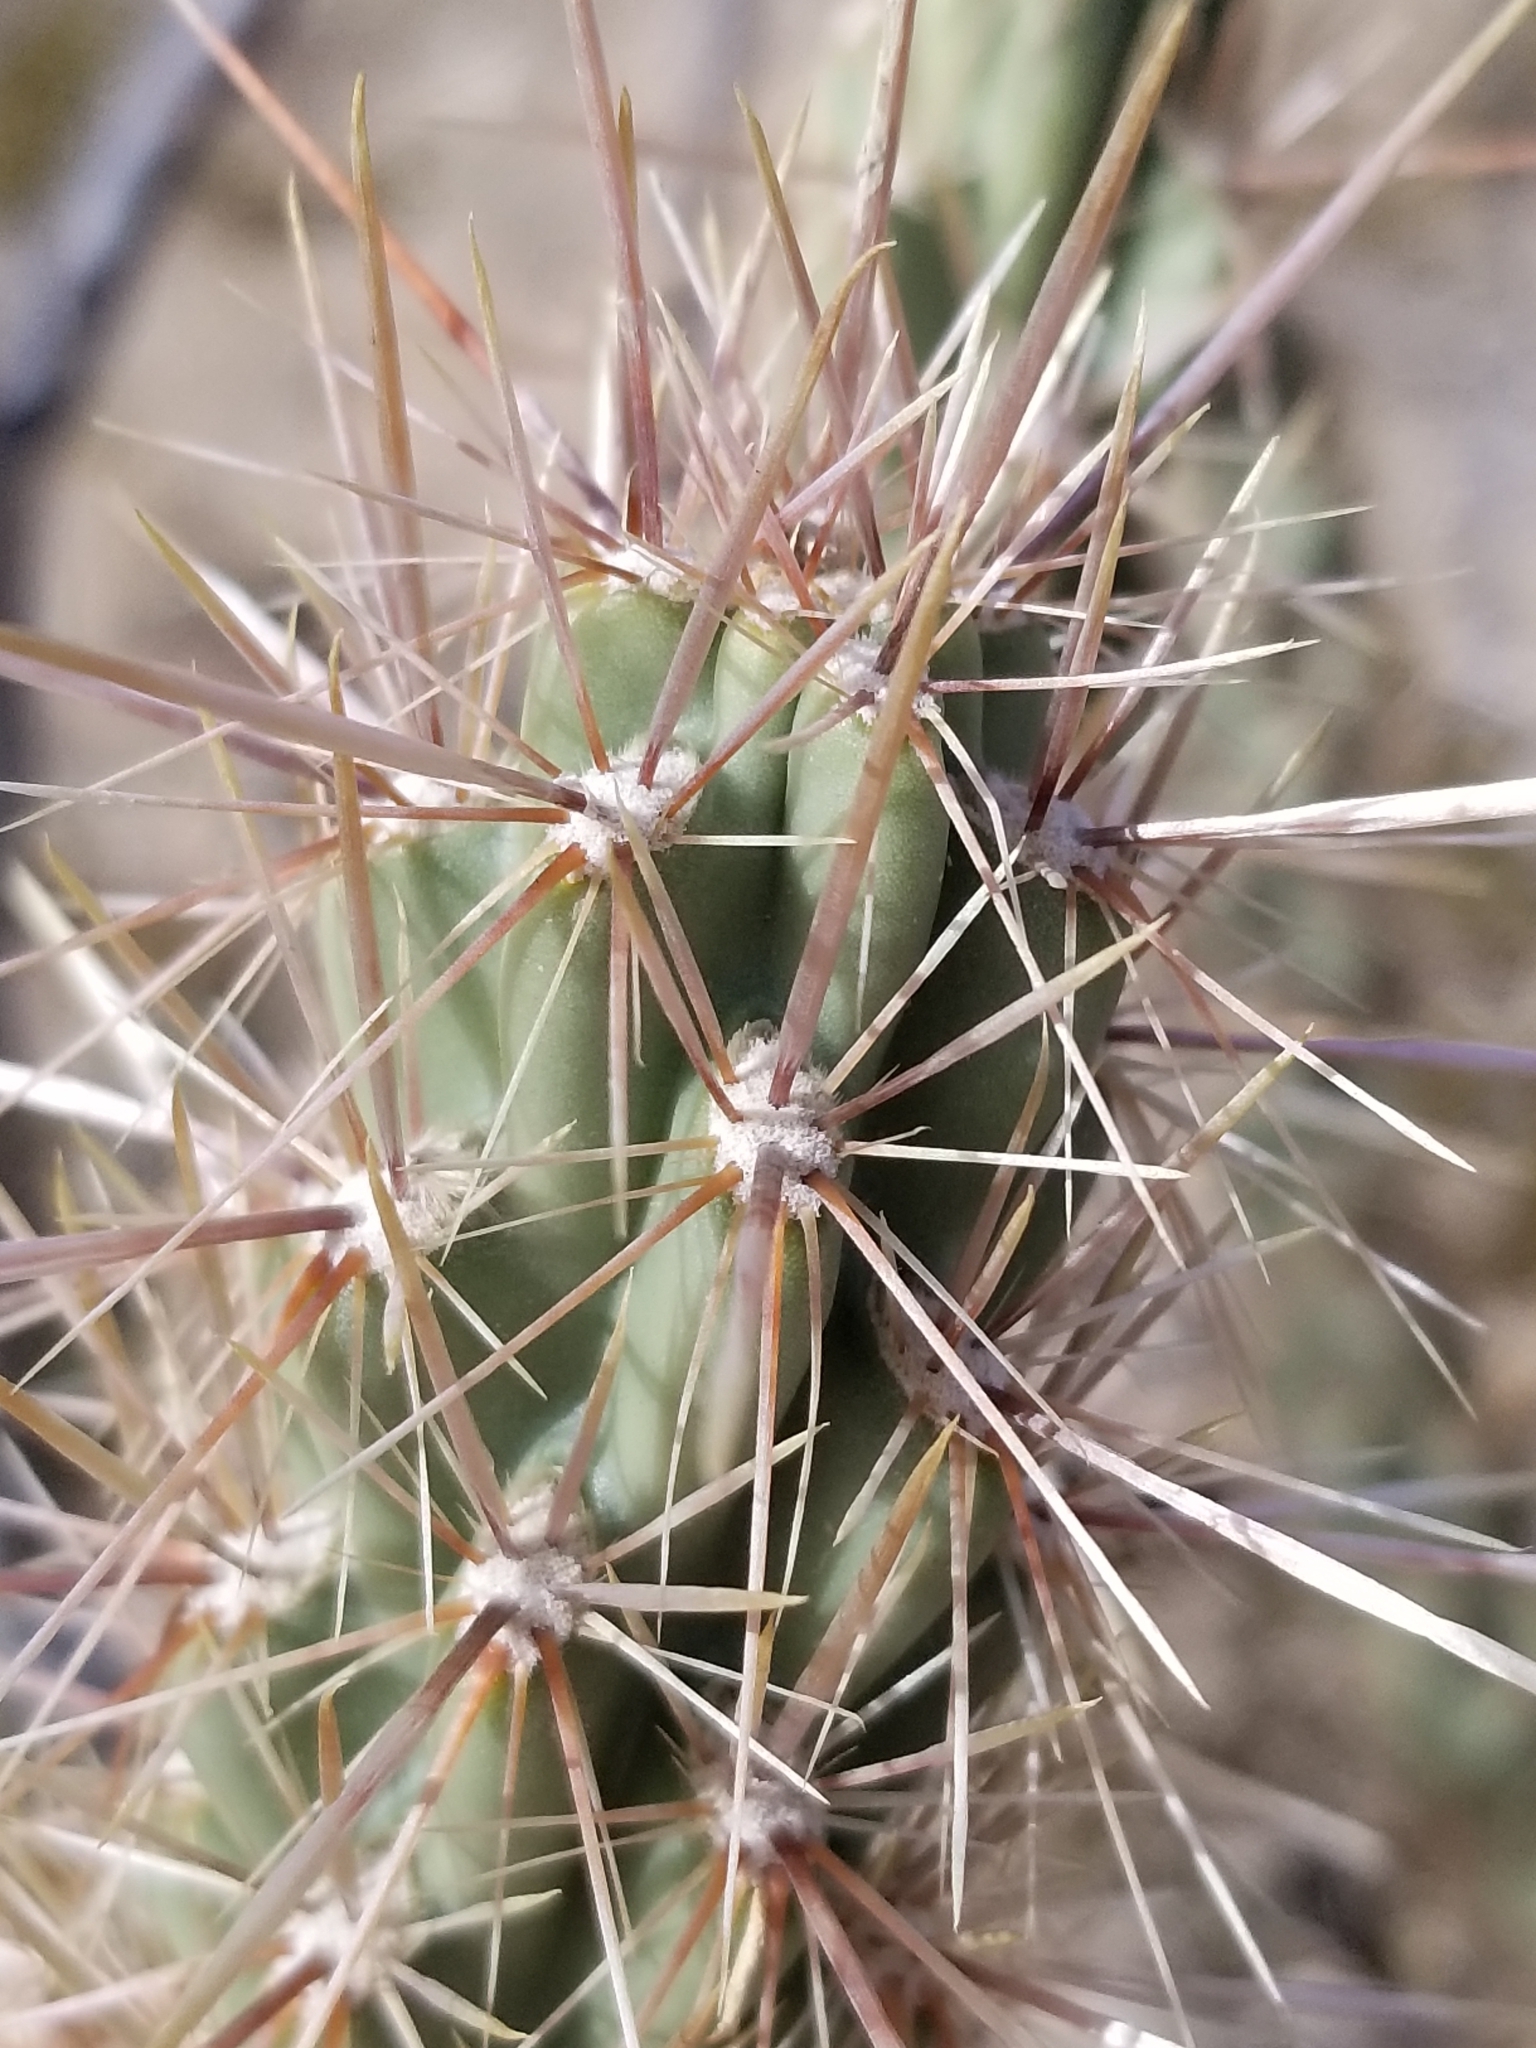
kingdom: Plantae
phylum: Tracheophyta
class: Magnoliopsida
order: Caryophyllales
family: Cactaceae
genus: Cylindropuntia
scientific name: Cylindropuntia ganderi
